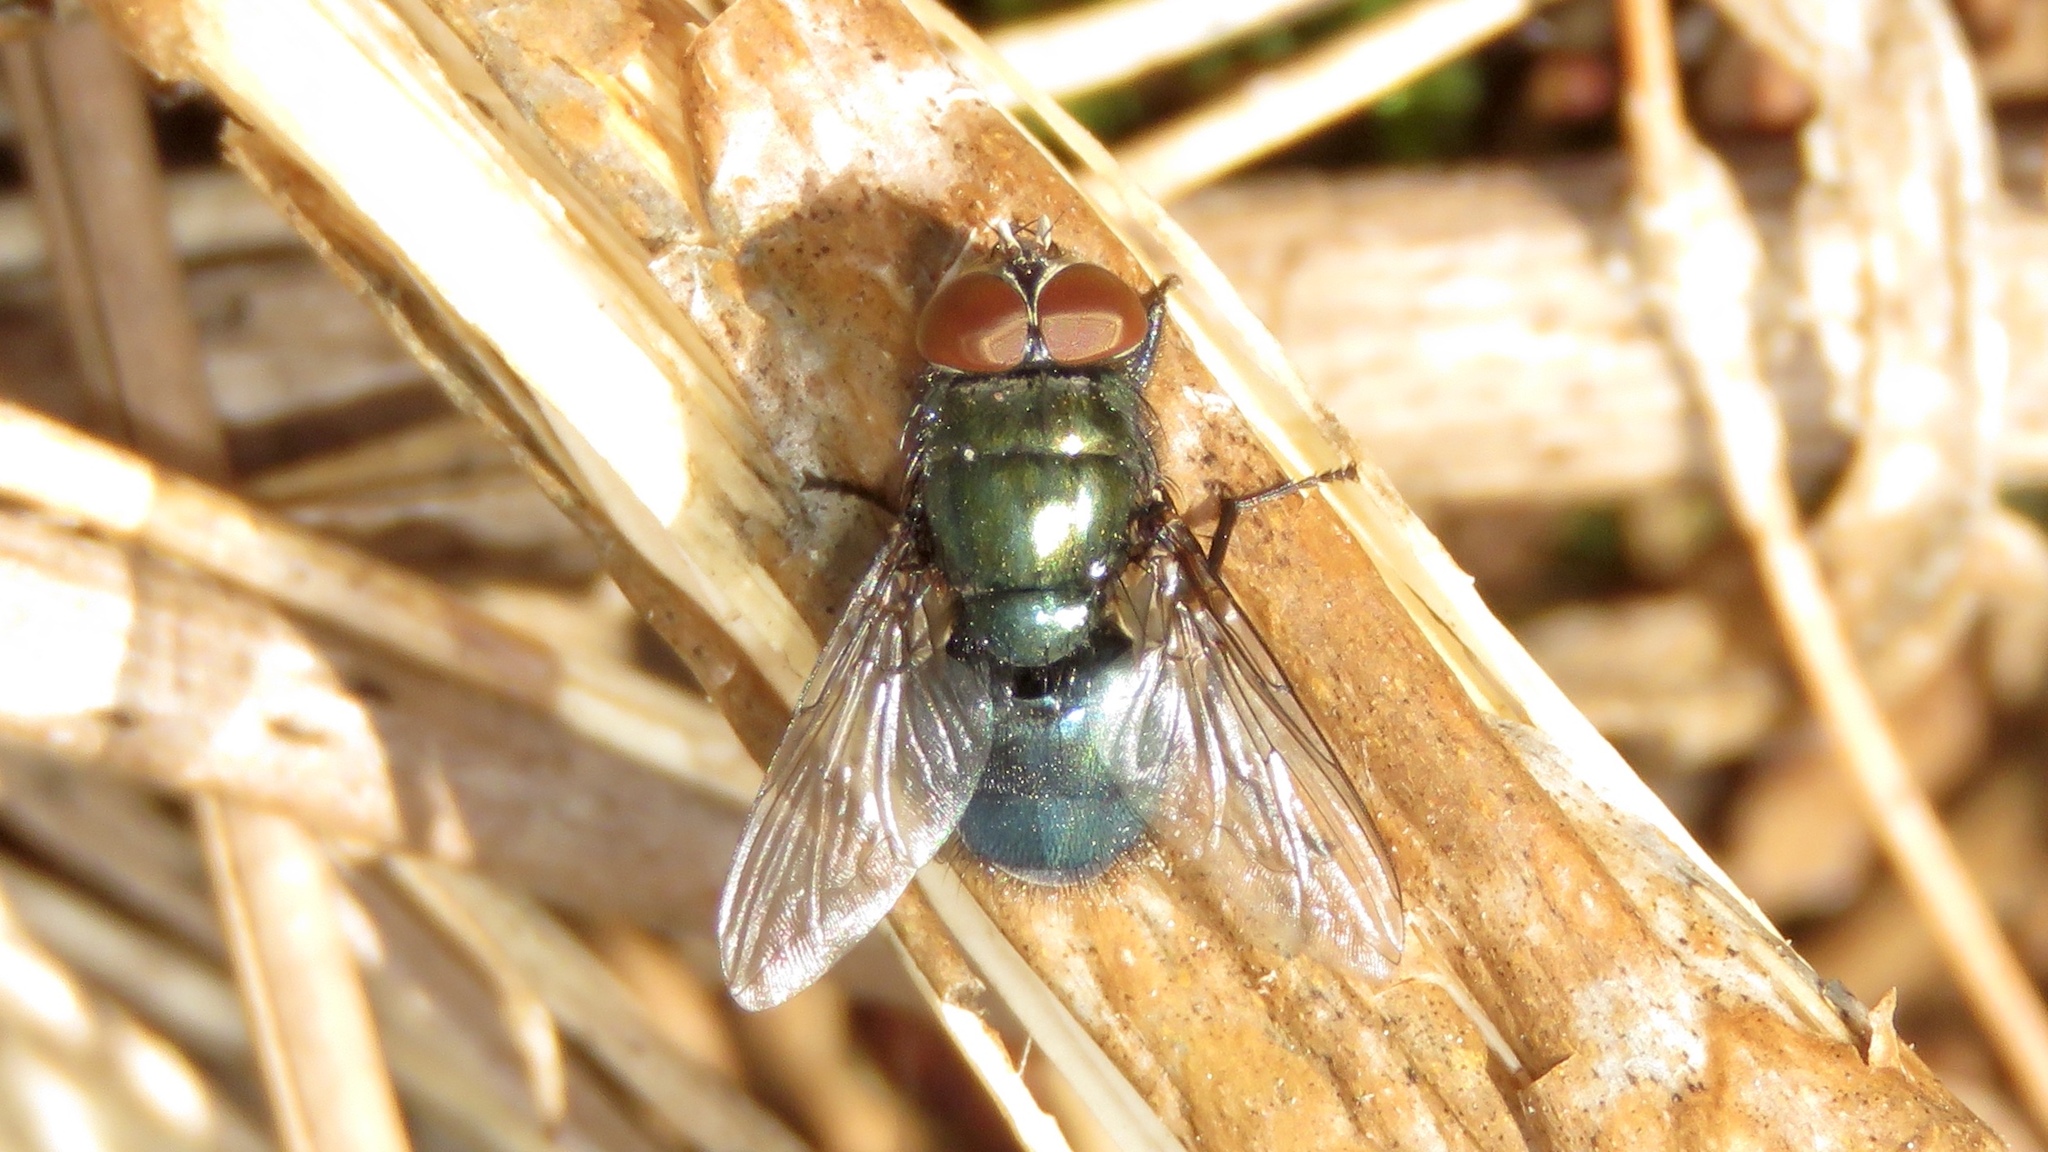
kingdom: Animalia
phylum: Arthropoda
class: Insecta
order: Diptera
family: Calliphoridae
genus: Phormia
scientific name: Phormia regina
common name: Black blow fly
